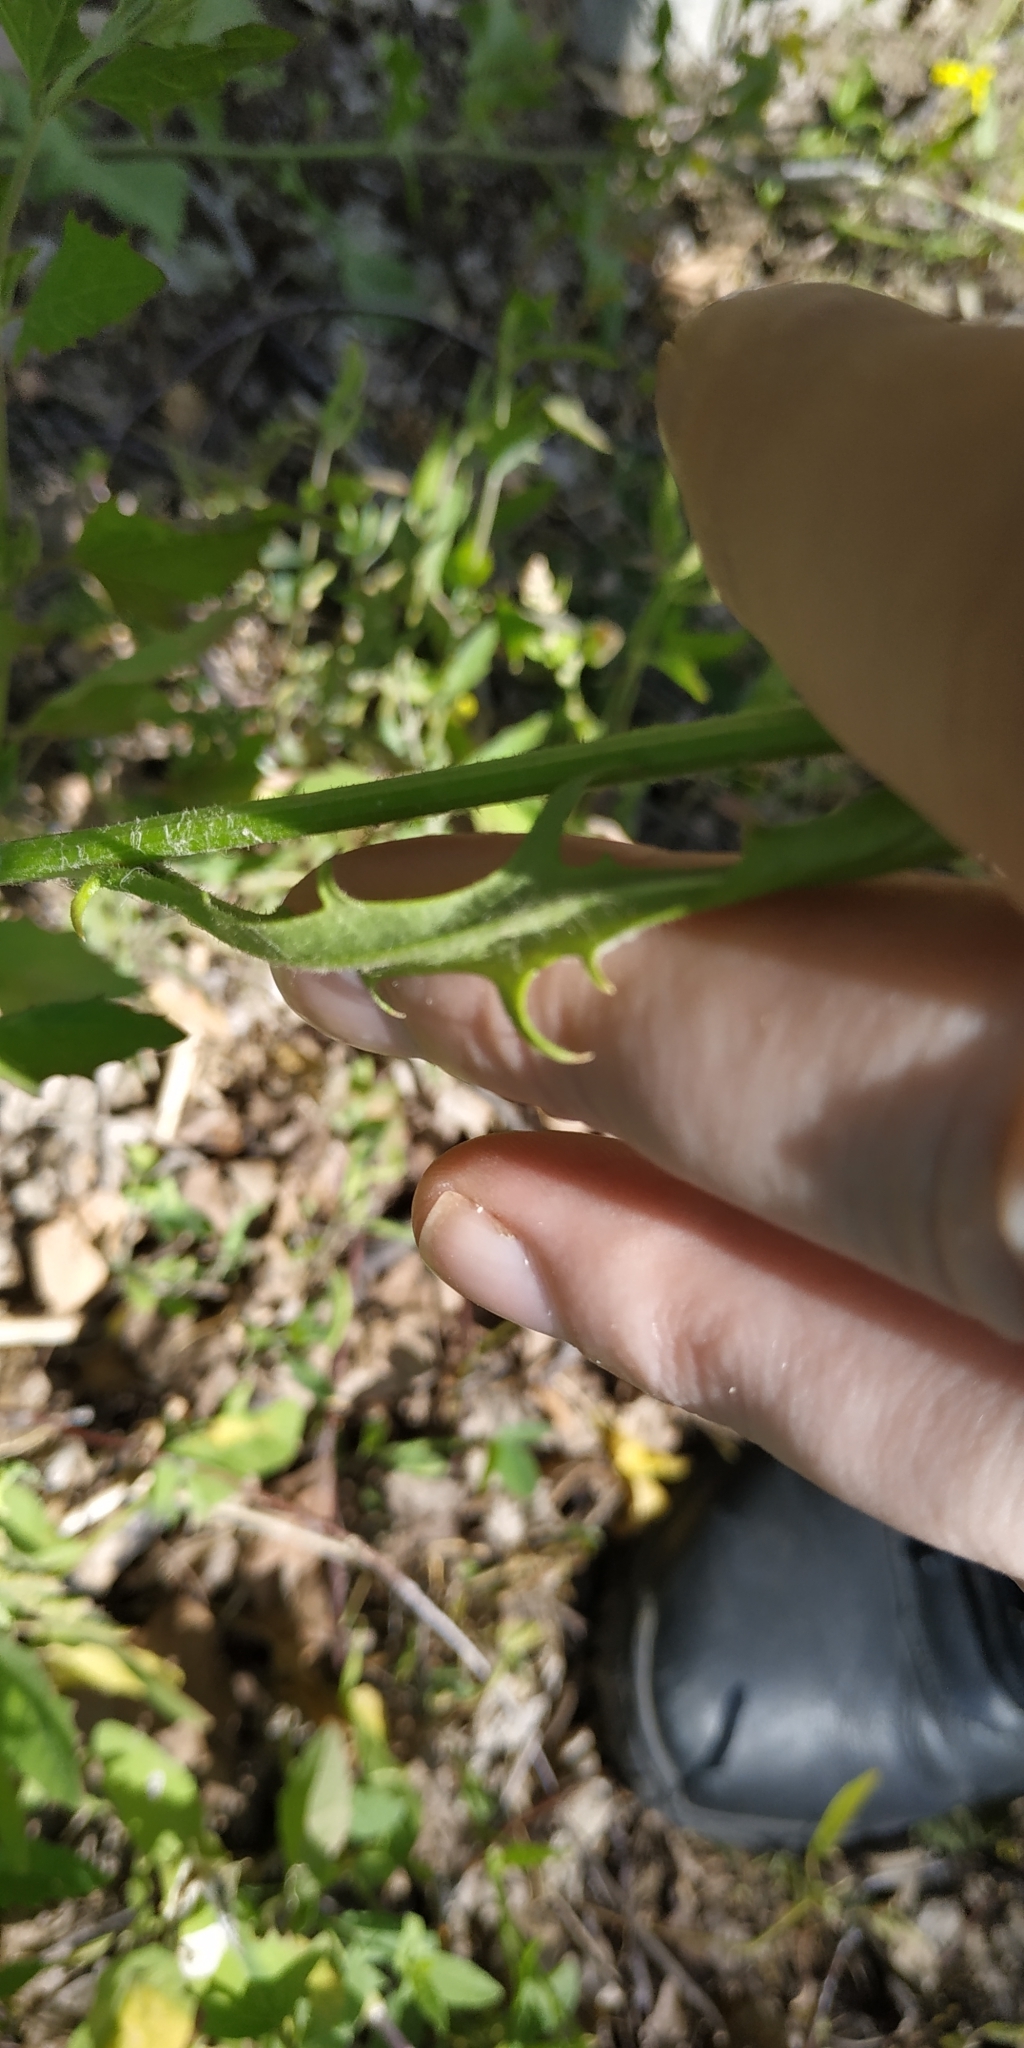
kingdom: Plantae
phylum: Tracheophyta
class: Magnoliopsida
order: Asterales
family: Asteraceae
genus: Crepis
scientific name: Crepis tectorum
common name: Narrow-leaved hawk's-beard
